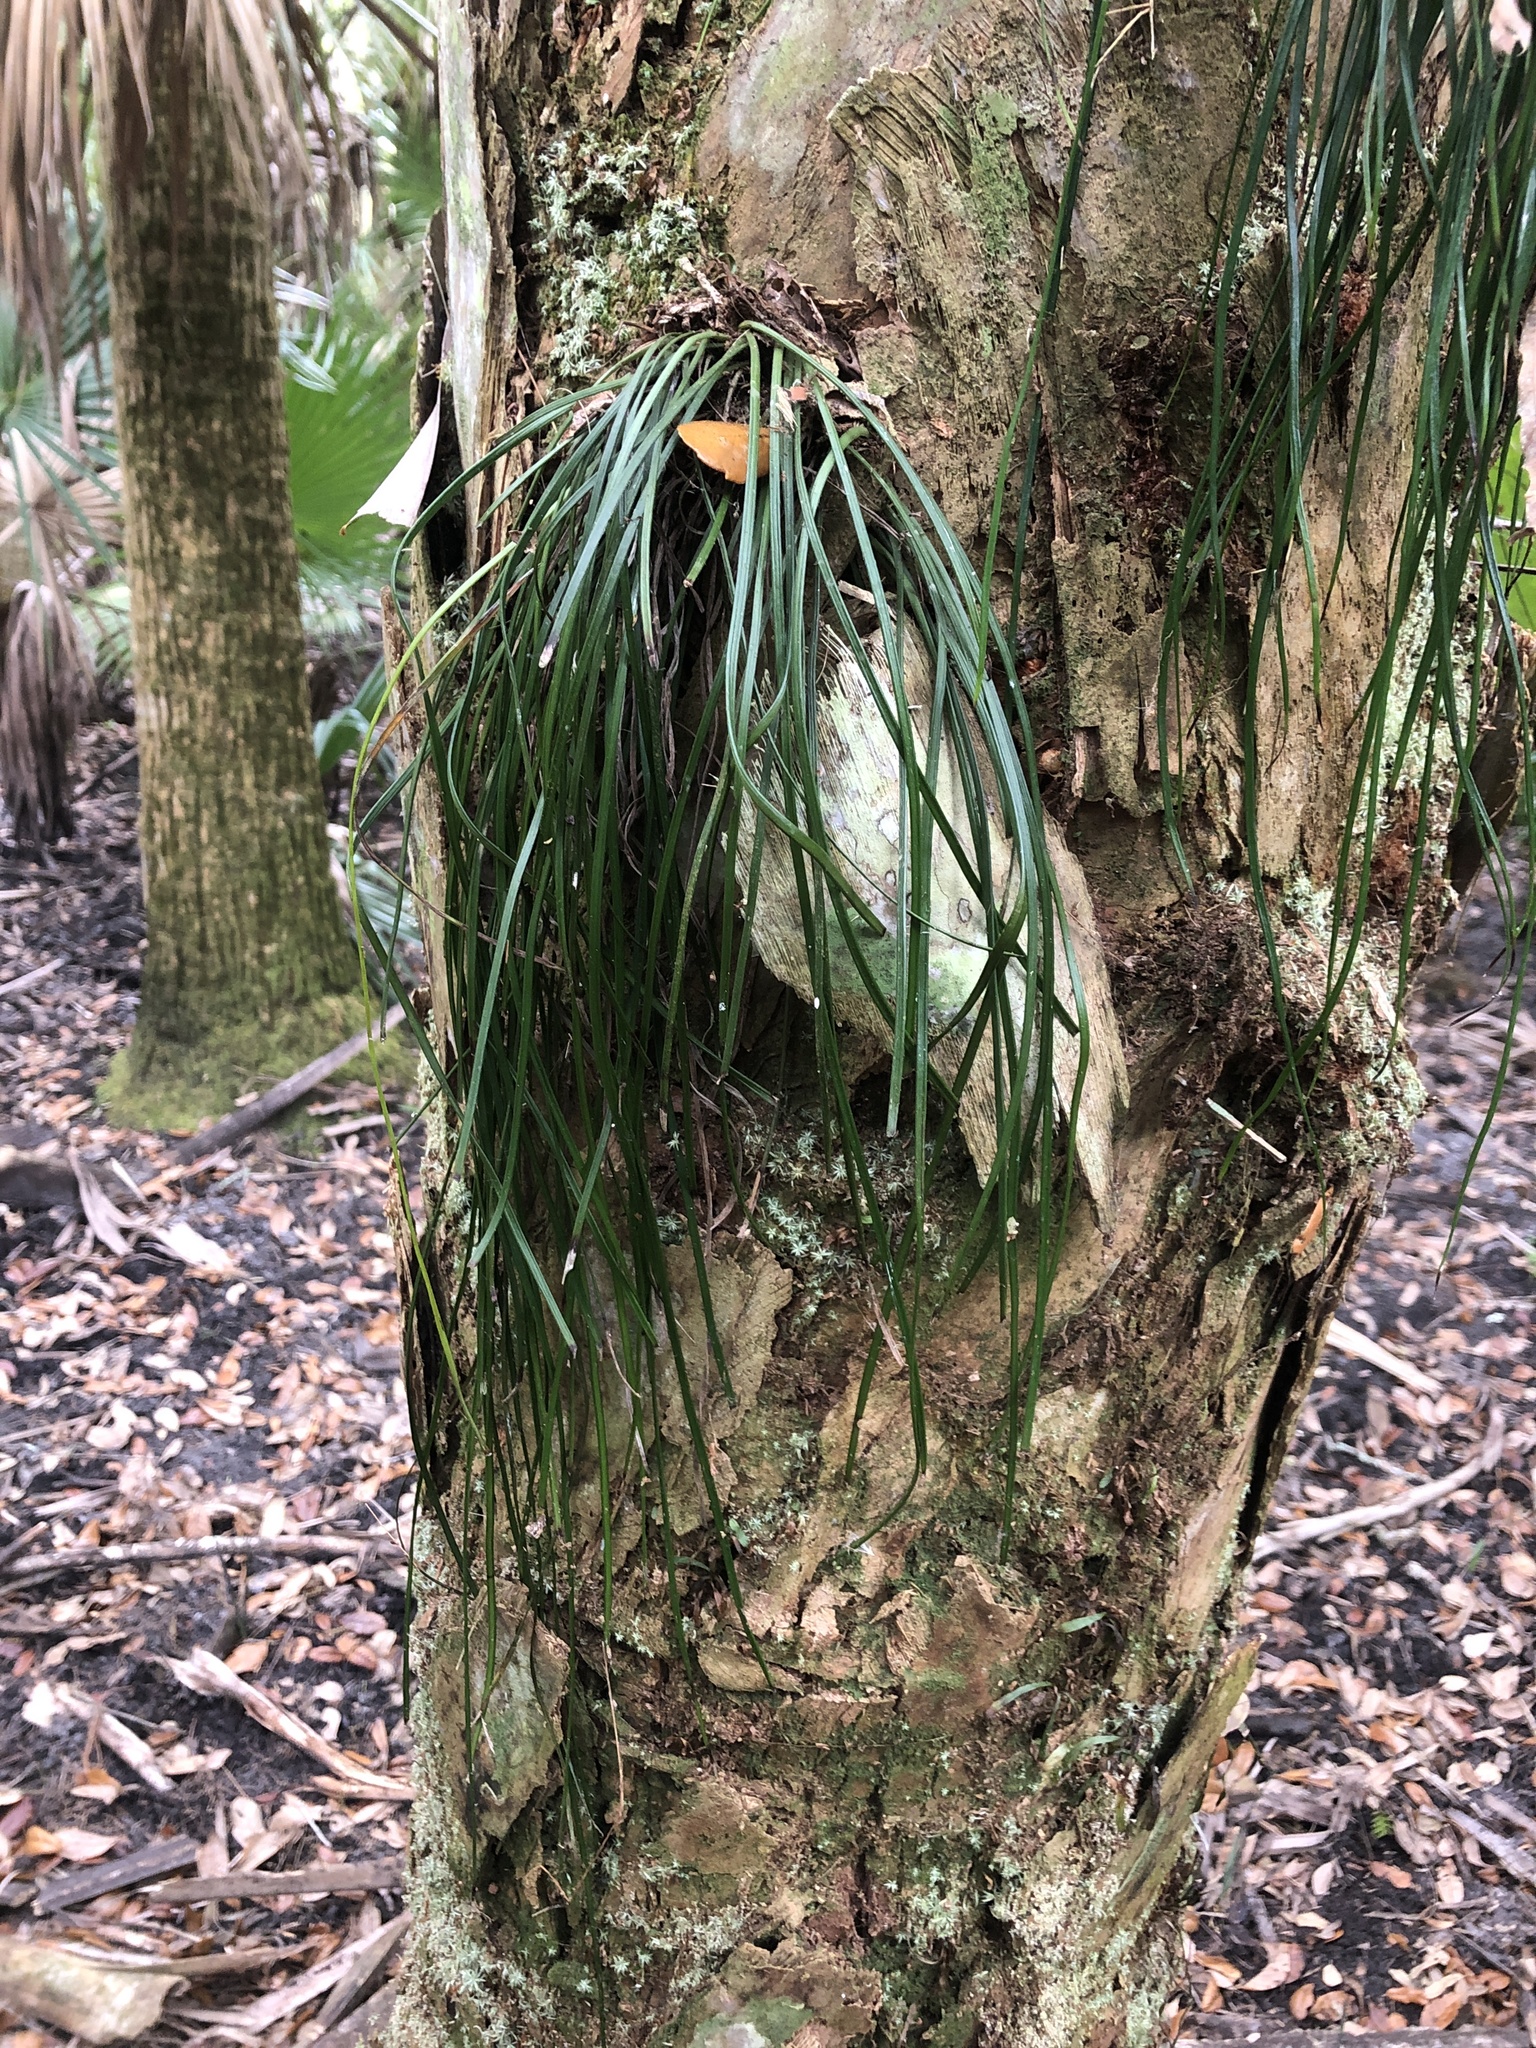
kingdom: Plantae
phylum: Tracheophyta
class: Polypodiopsida
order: Polypodiales
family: Pteridaceae
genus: Vittaria
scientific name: Vittaria lineata
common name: Shoestring fern
